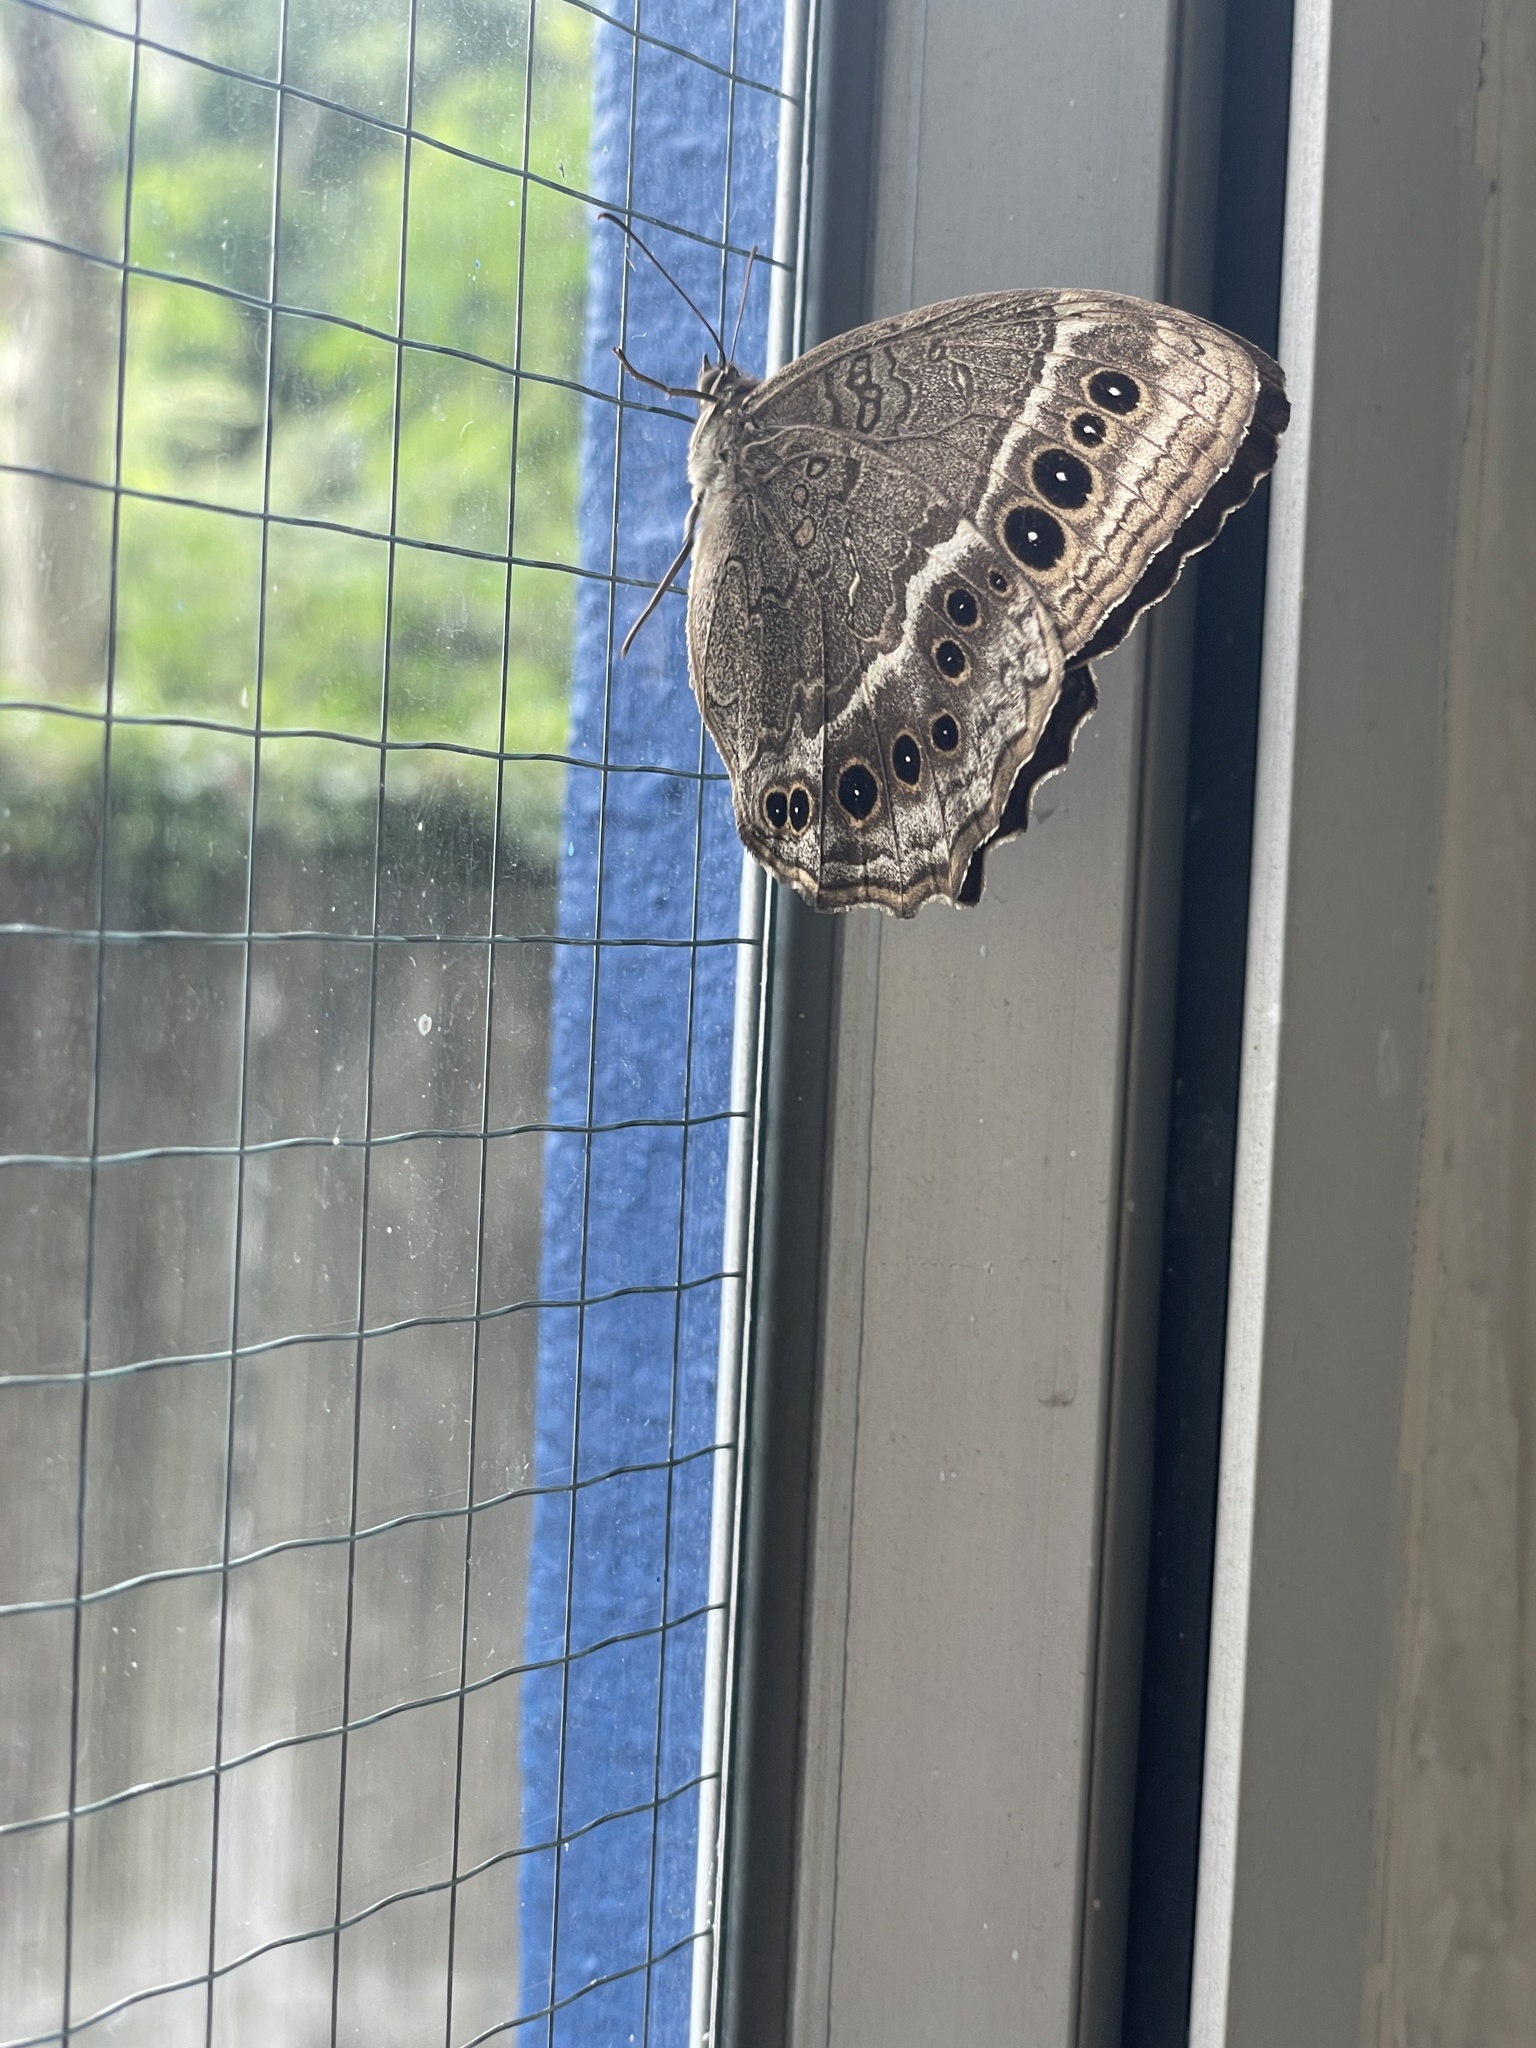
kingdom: Animalia
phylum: Arthropoda
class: Insecta
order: Lepidoptera
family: Nymphalidae
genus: Neope
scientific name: Neope muirheadii
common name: Black-spotted labyrinth
